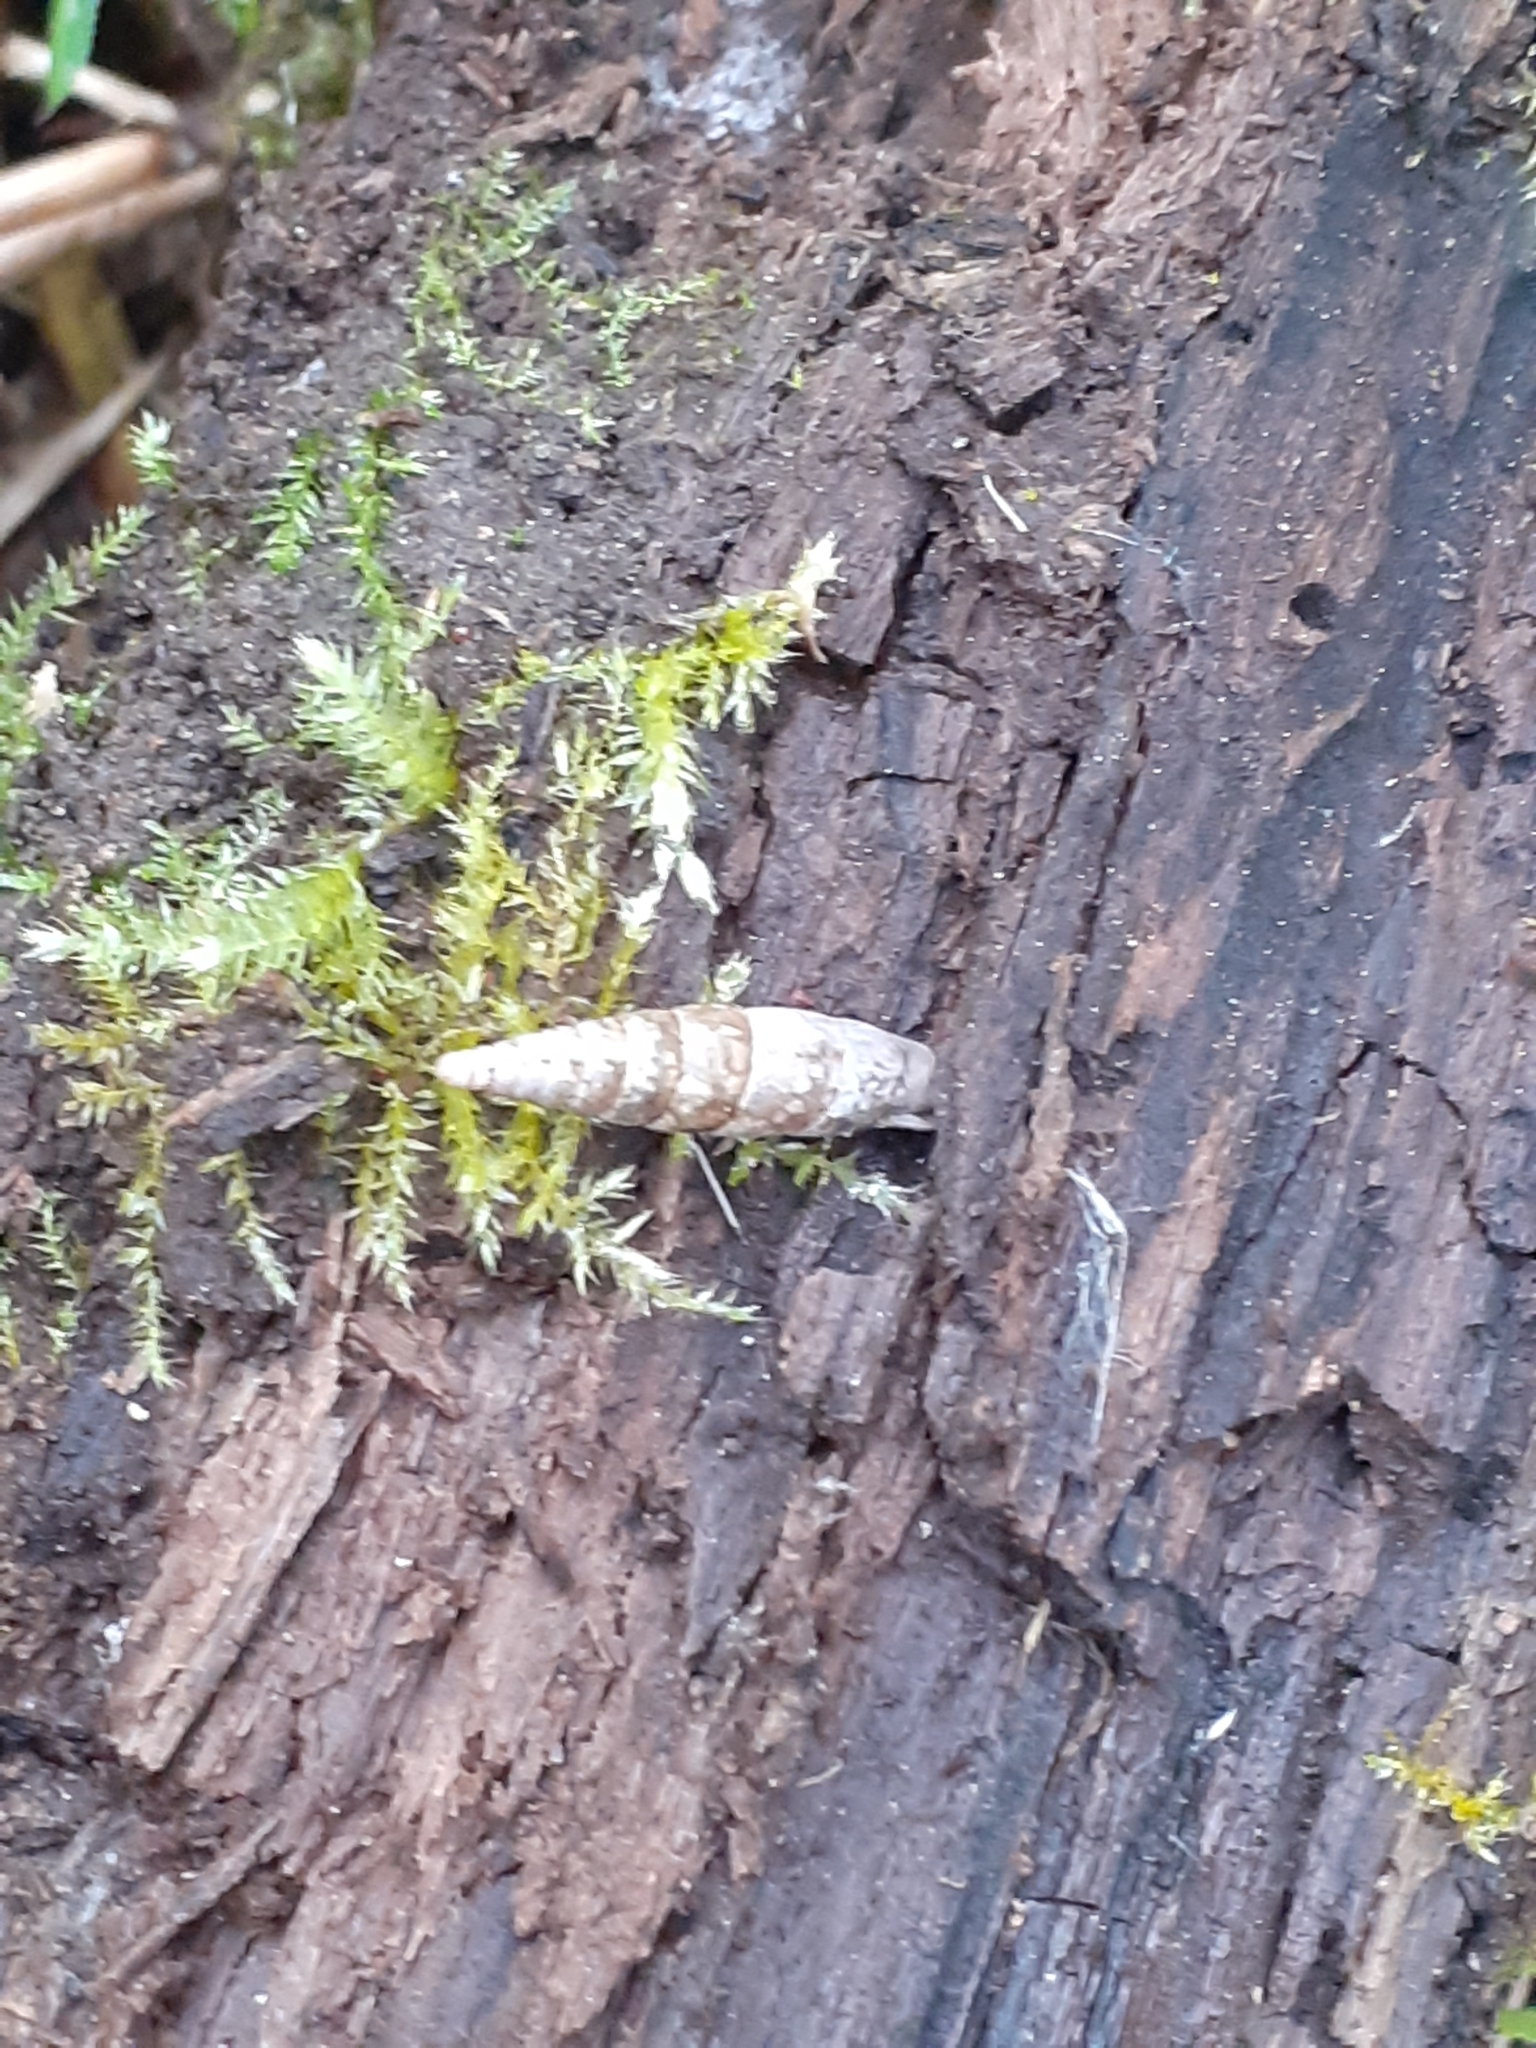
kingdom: Animalia
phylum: Mollusca
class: Gastropoda
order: Stylommatophora
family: Clausiliidae
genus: Cochlodina
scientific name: Cochlodina laminata
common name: Plaited door snail
